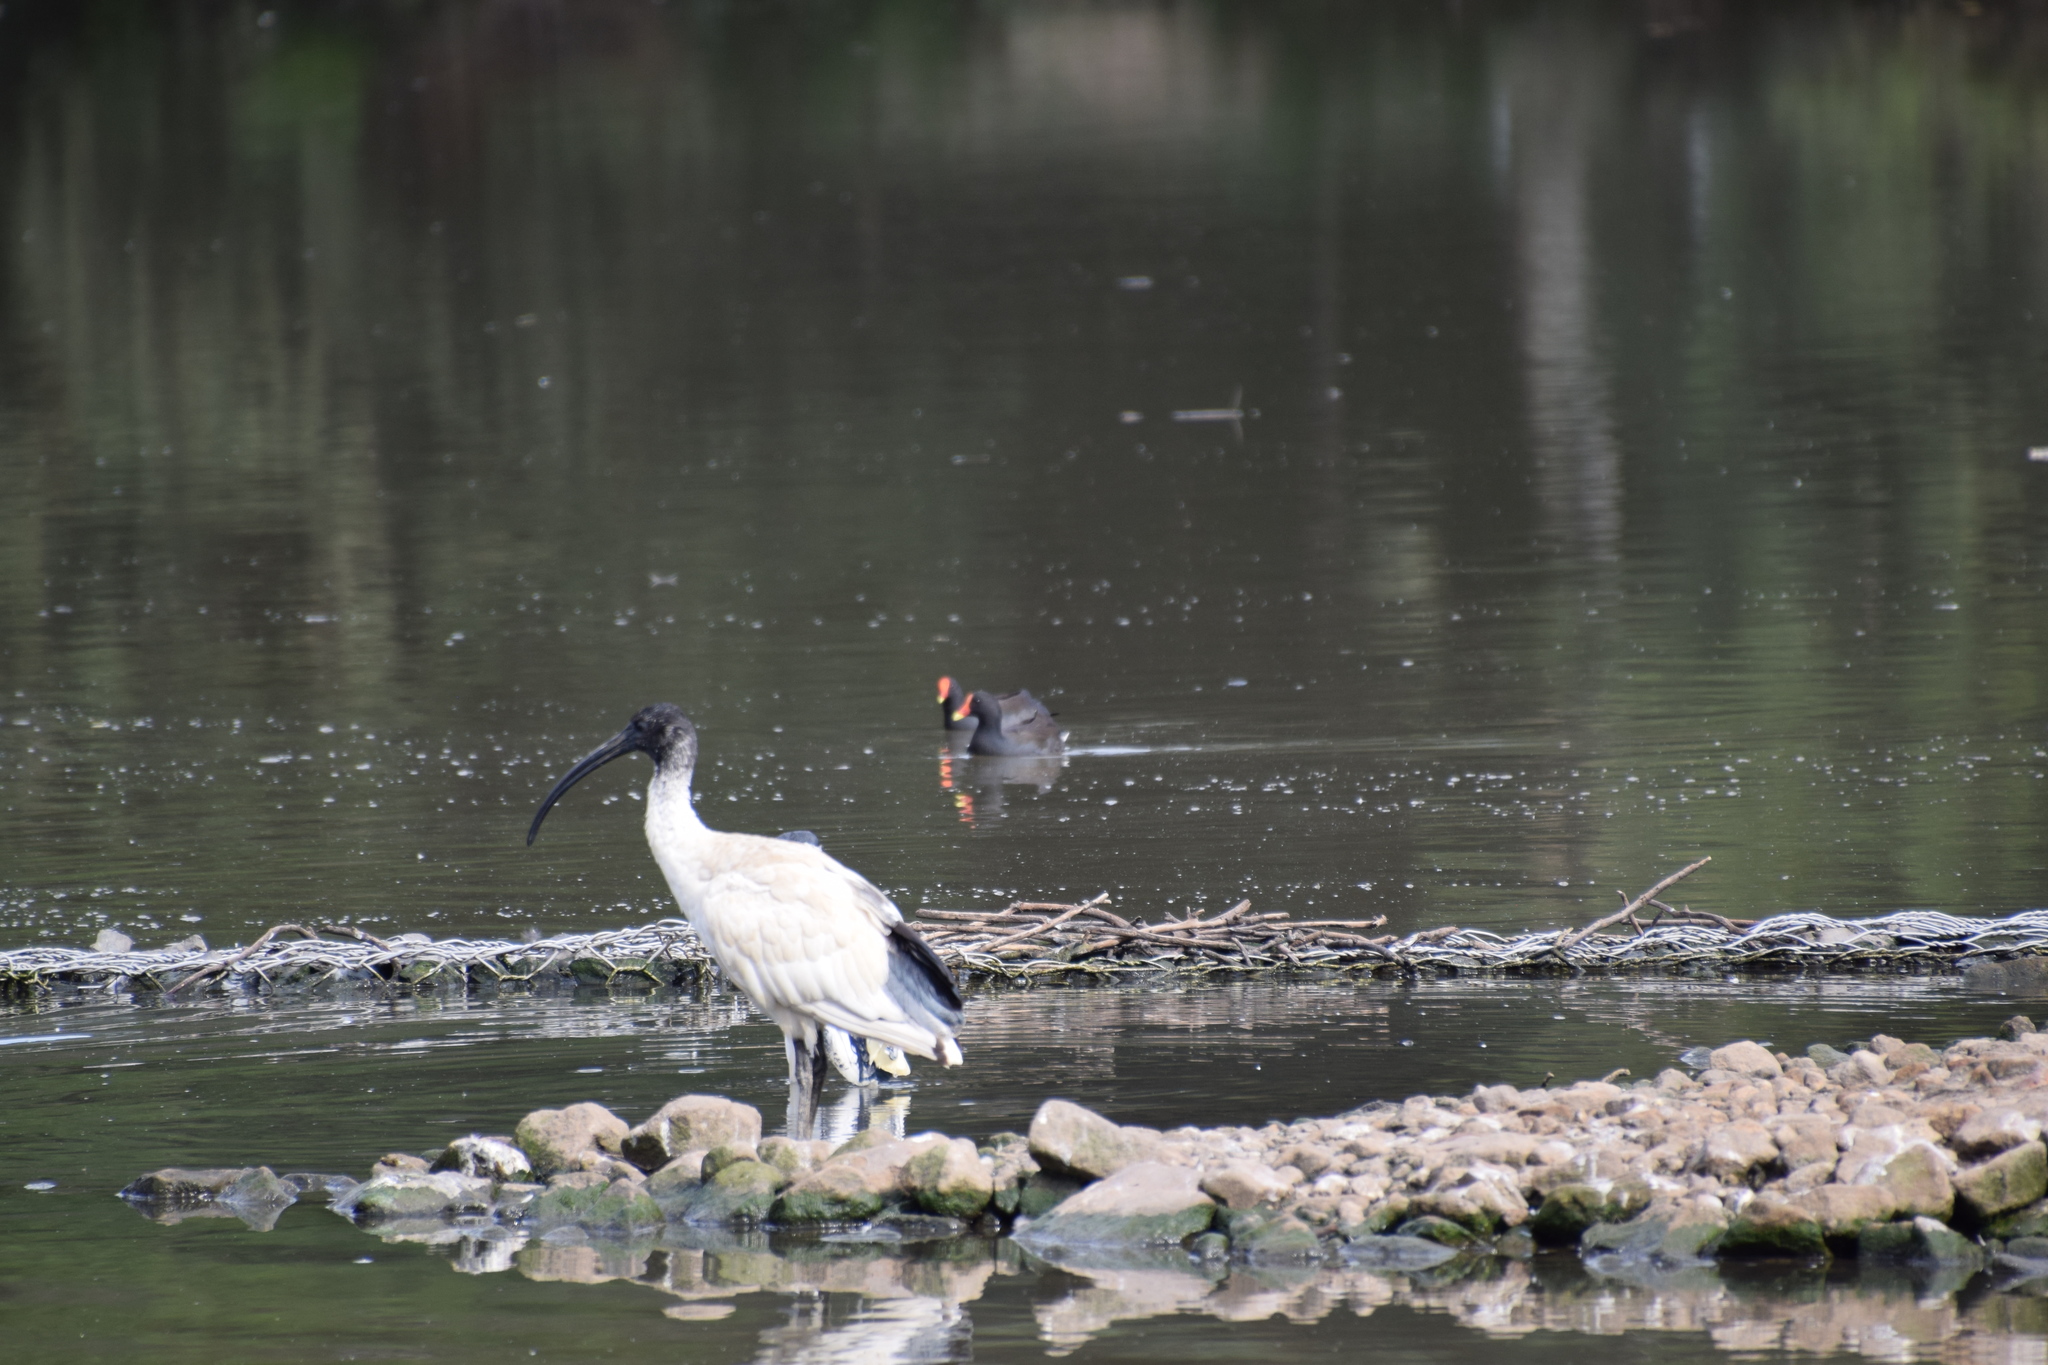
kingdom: Animalia
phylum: Chordata
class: Aves
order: Gruiformes
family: Rallidae
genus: Gallinula
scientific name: Gallinula tenebrosa
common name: Dusky moorhen
